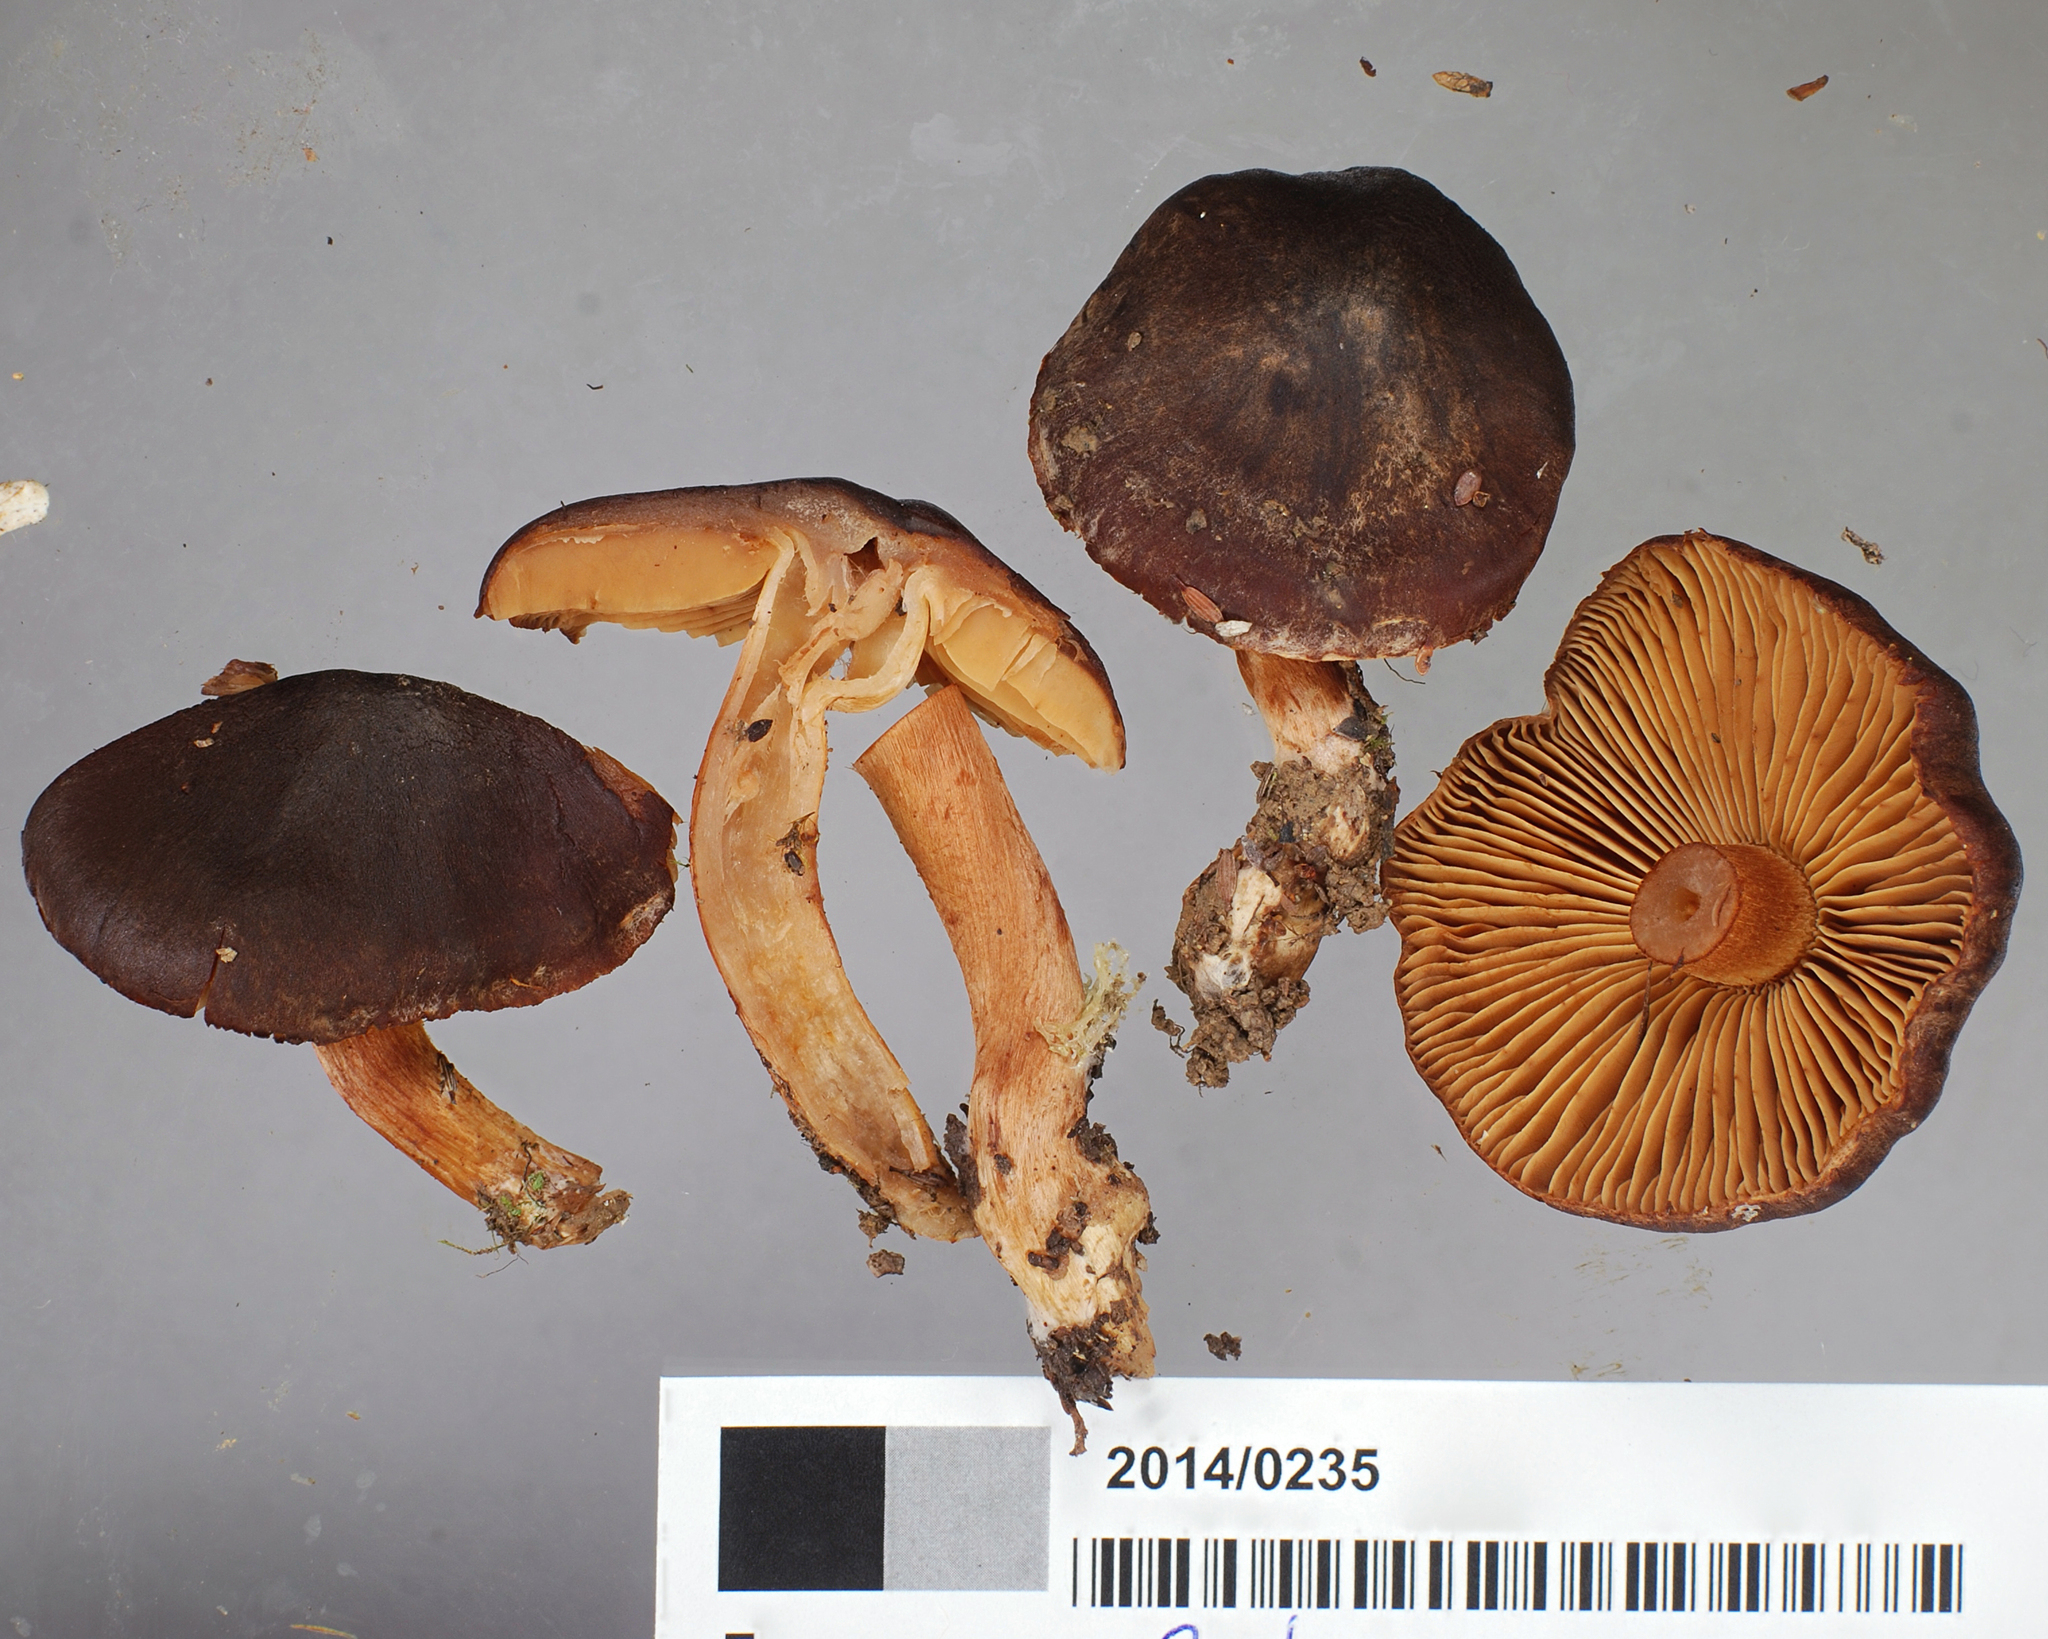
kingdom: Fungi
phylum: Basidiomycota
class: Agaricomycetes
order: Agaricales
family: Cortinariaceae
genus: Cortinarius
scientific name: Cortinarius xenosma
